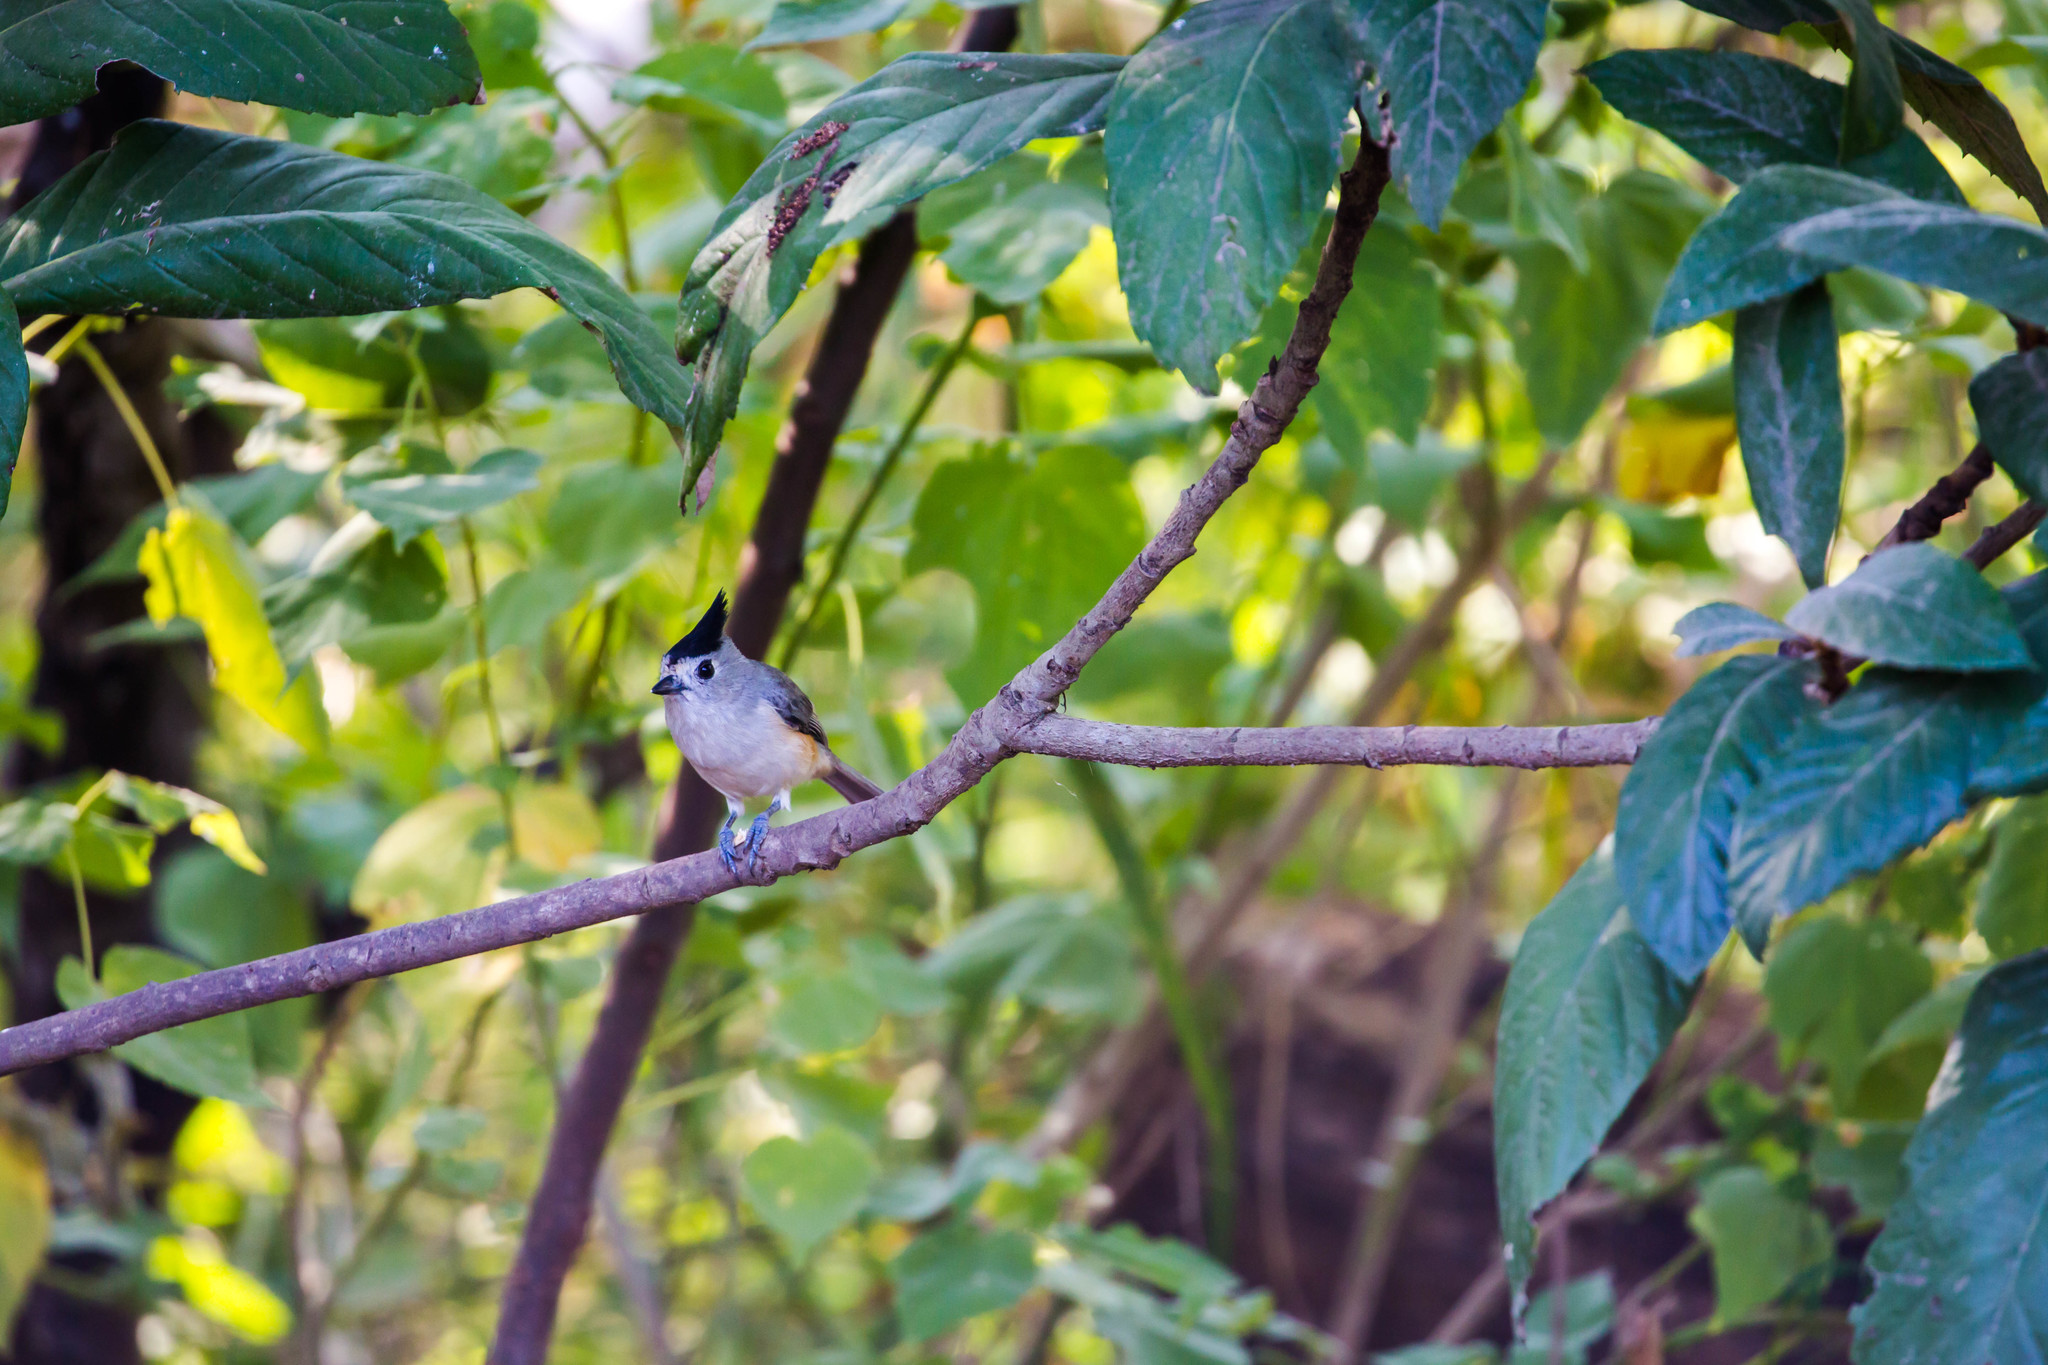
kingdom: Animalia
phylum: Chordata
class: Aves
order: Passeriformes
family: Paridae
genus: Baeolophus
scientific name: Baeolophus atricristatus
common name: Black-crested titmouse
